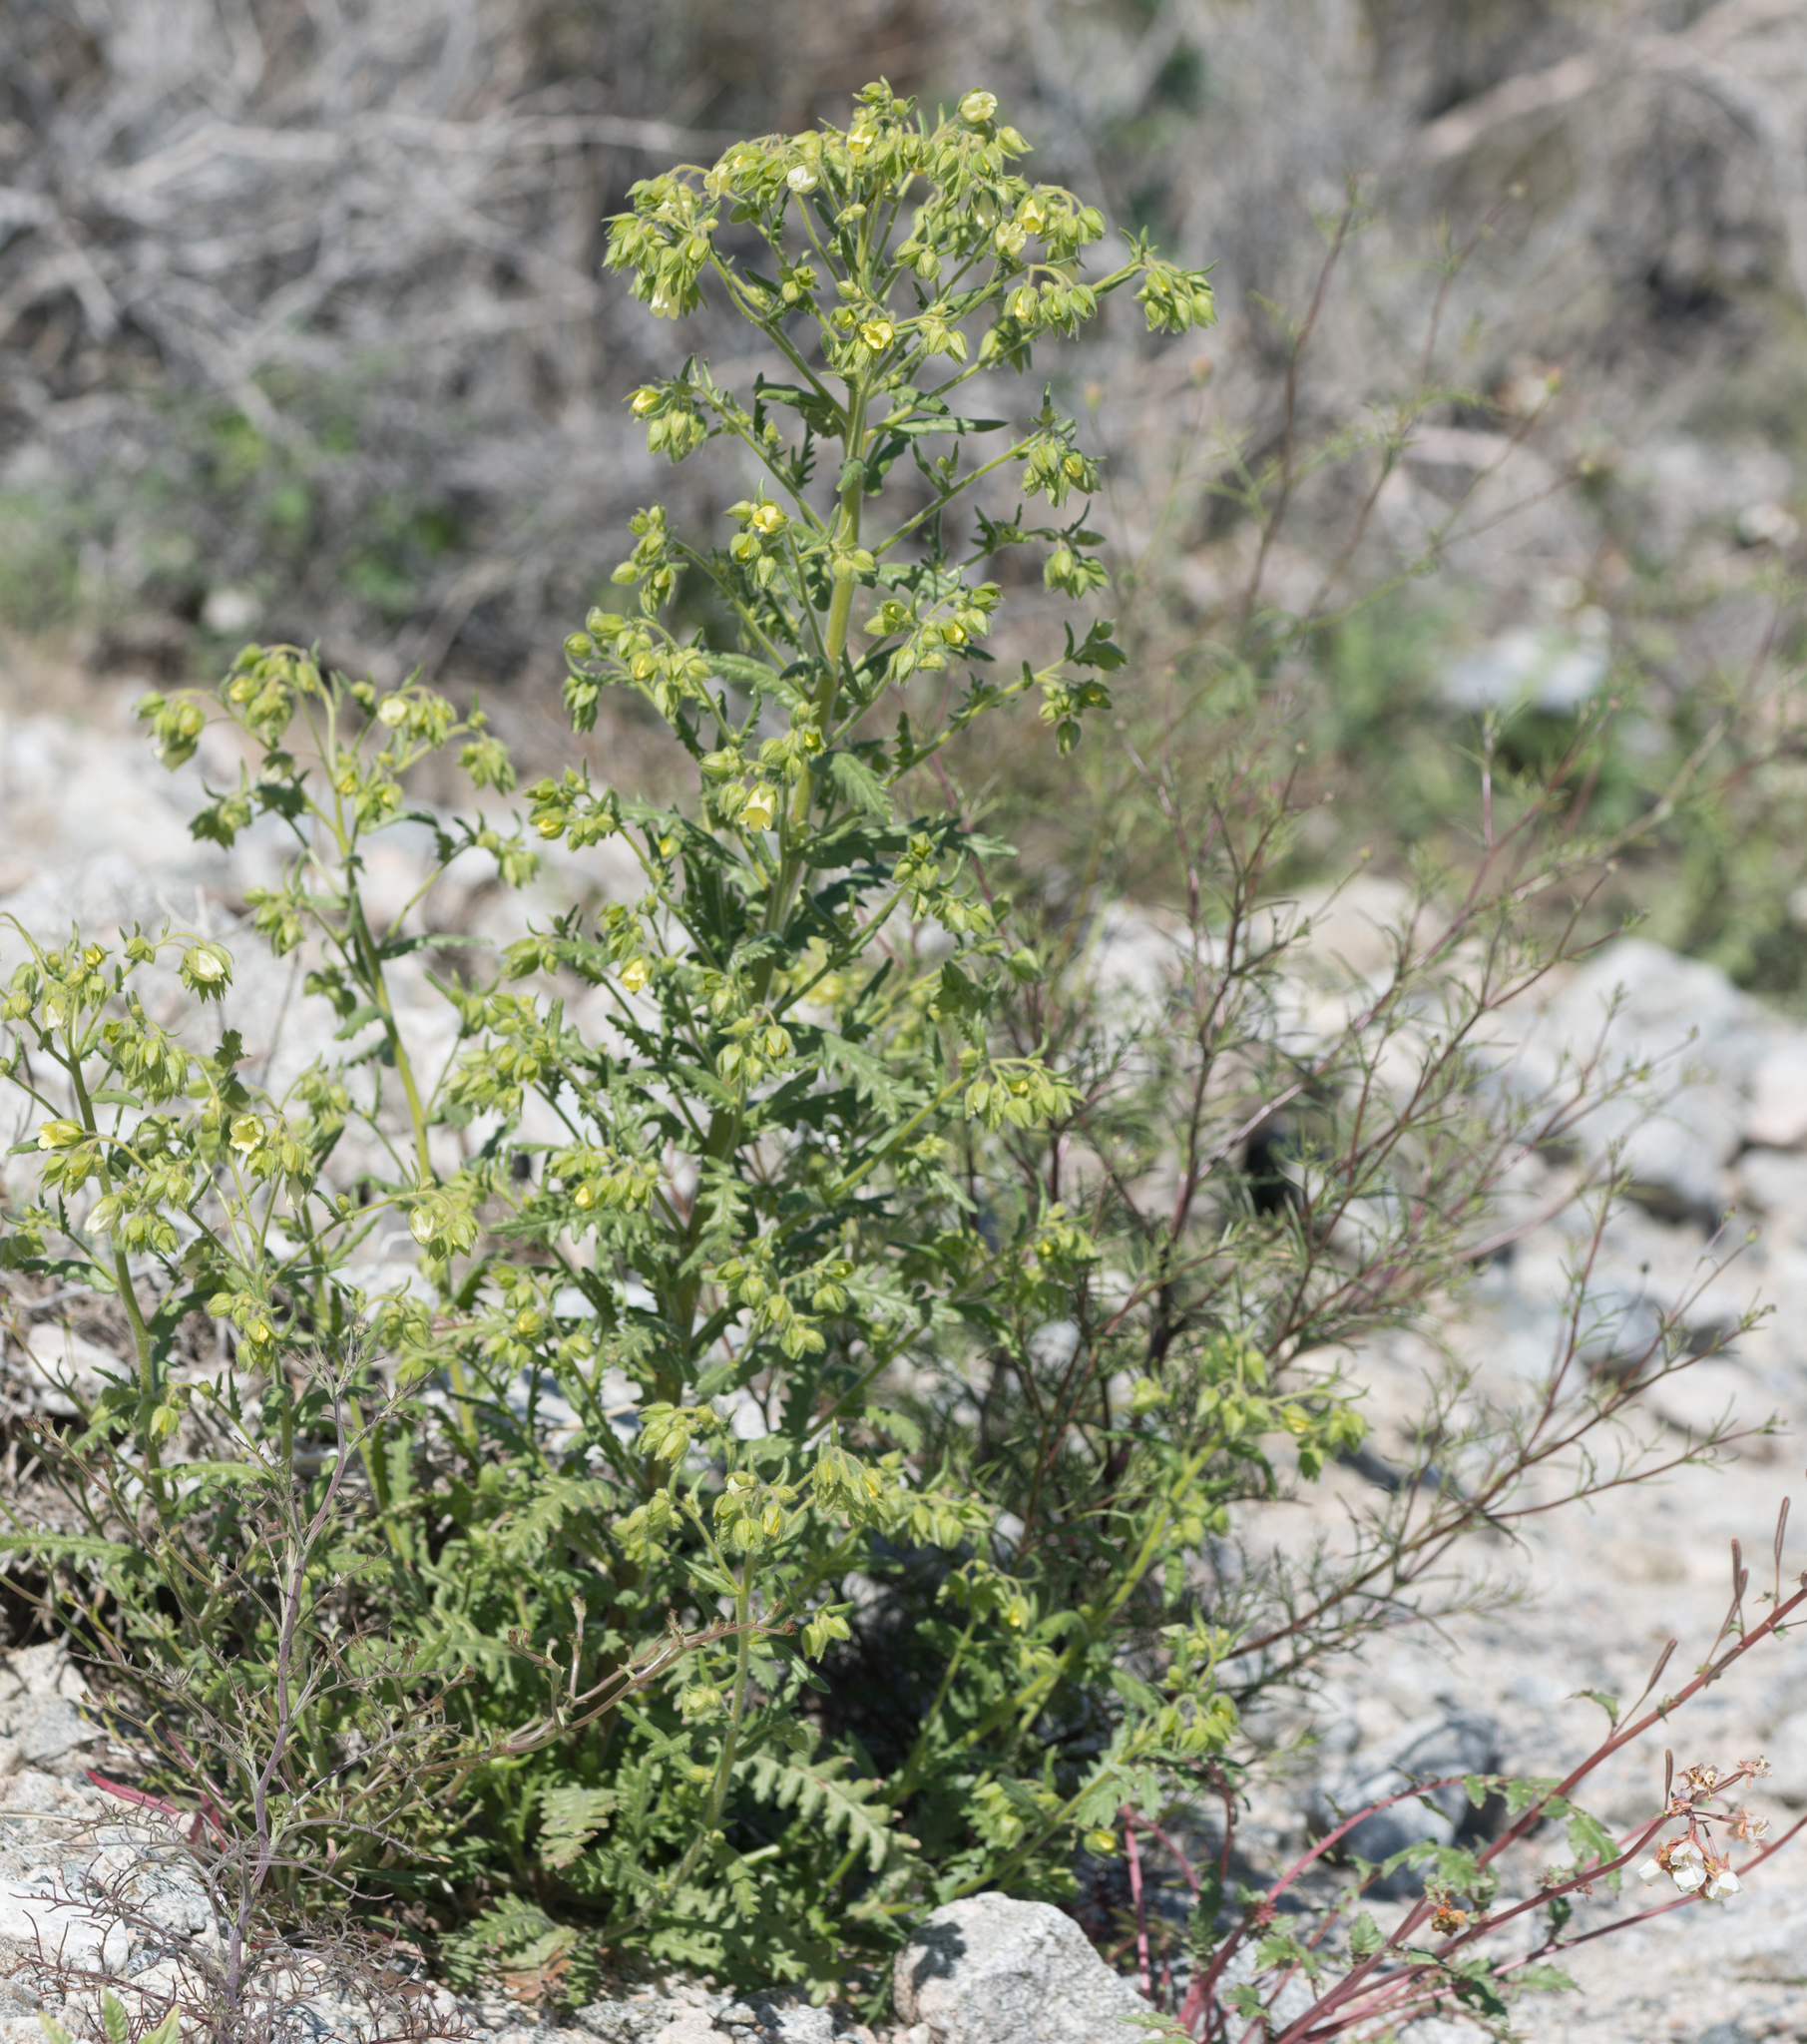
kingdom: Plantae
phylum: Tracheophyta
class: Magnoliopsida
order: Boraginales
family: Hydrophyllaceae
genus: Emmenanthe
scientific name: Emmenanthe penduliflora
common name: Whispering-bells
